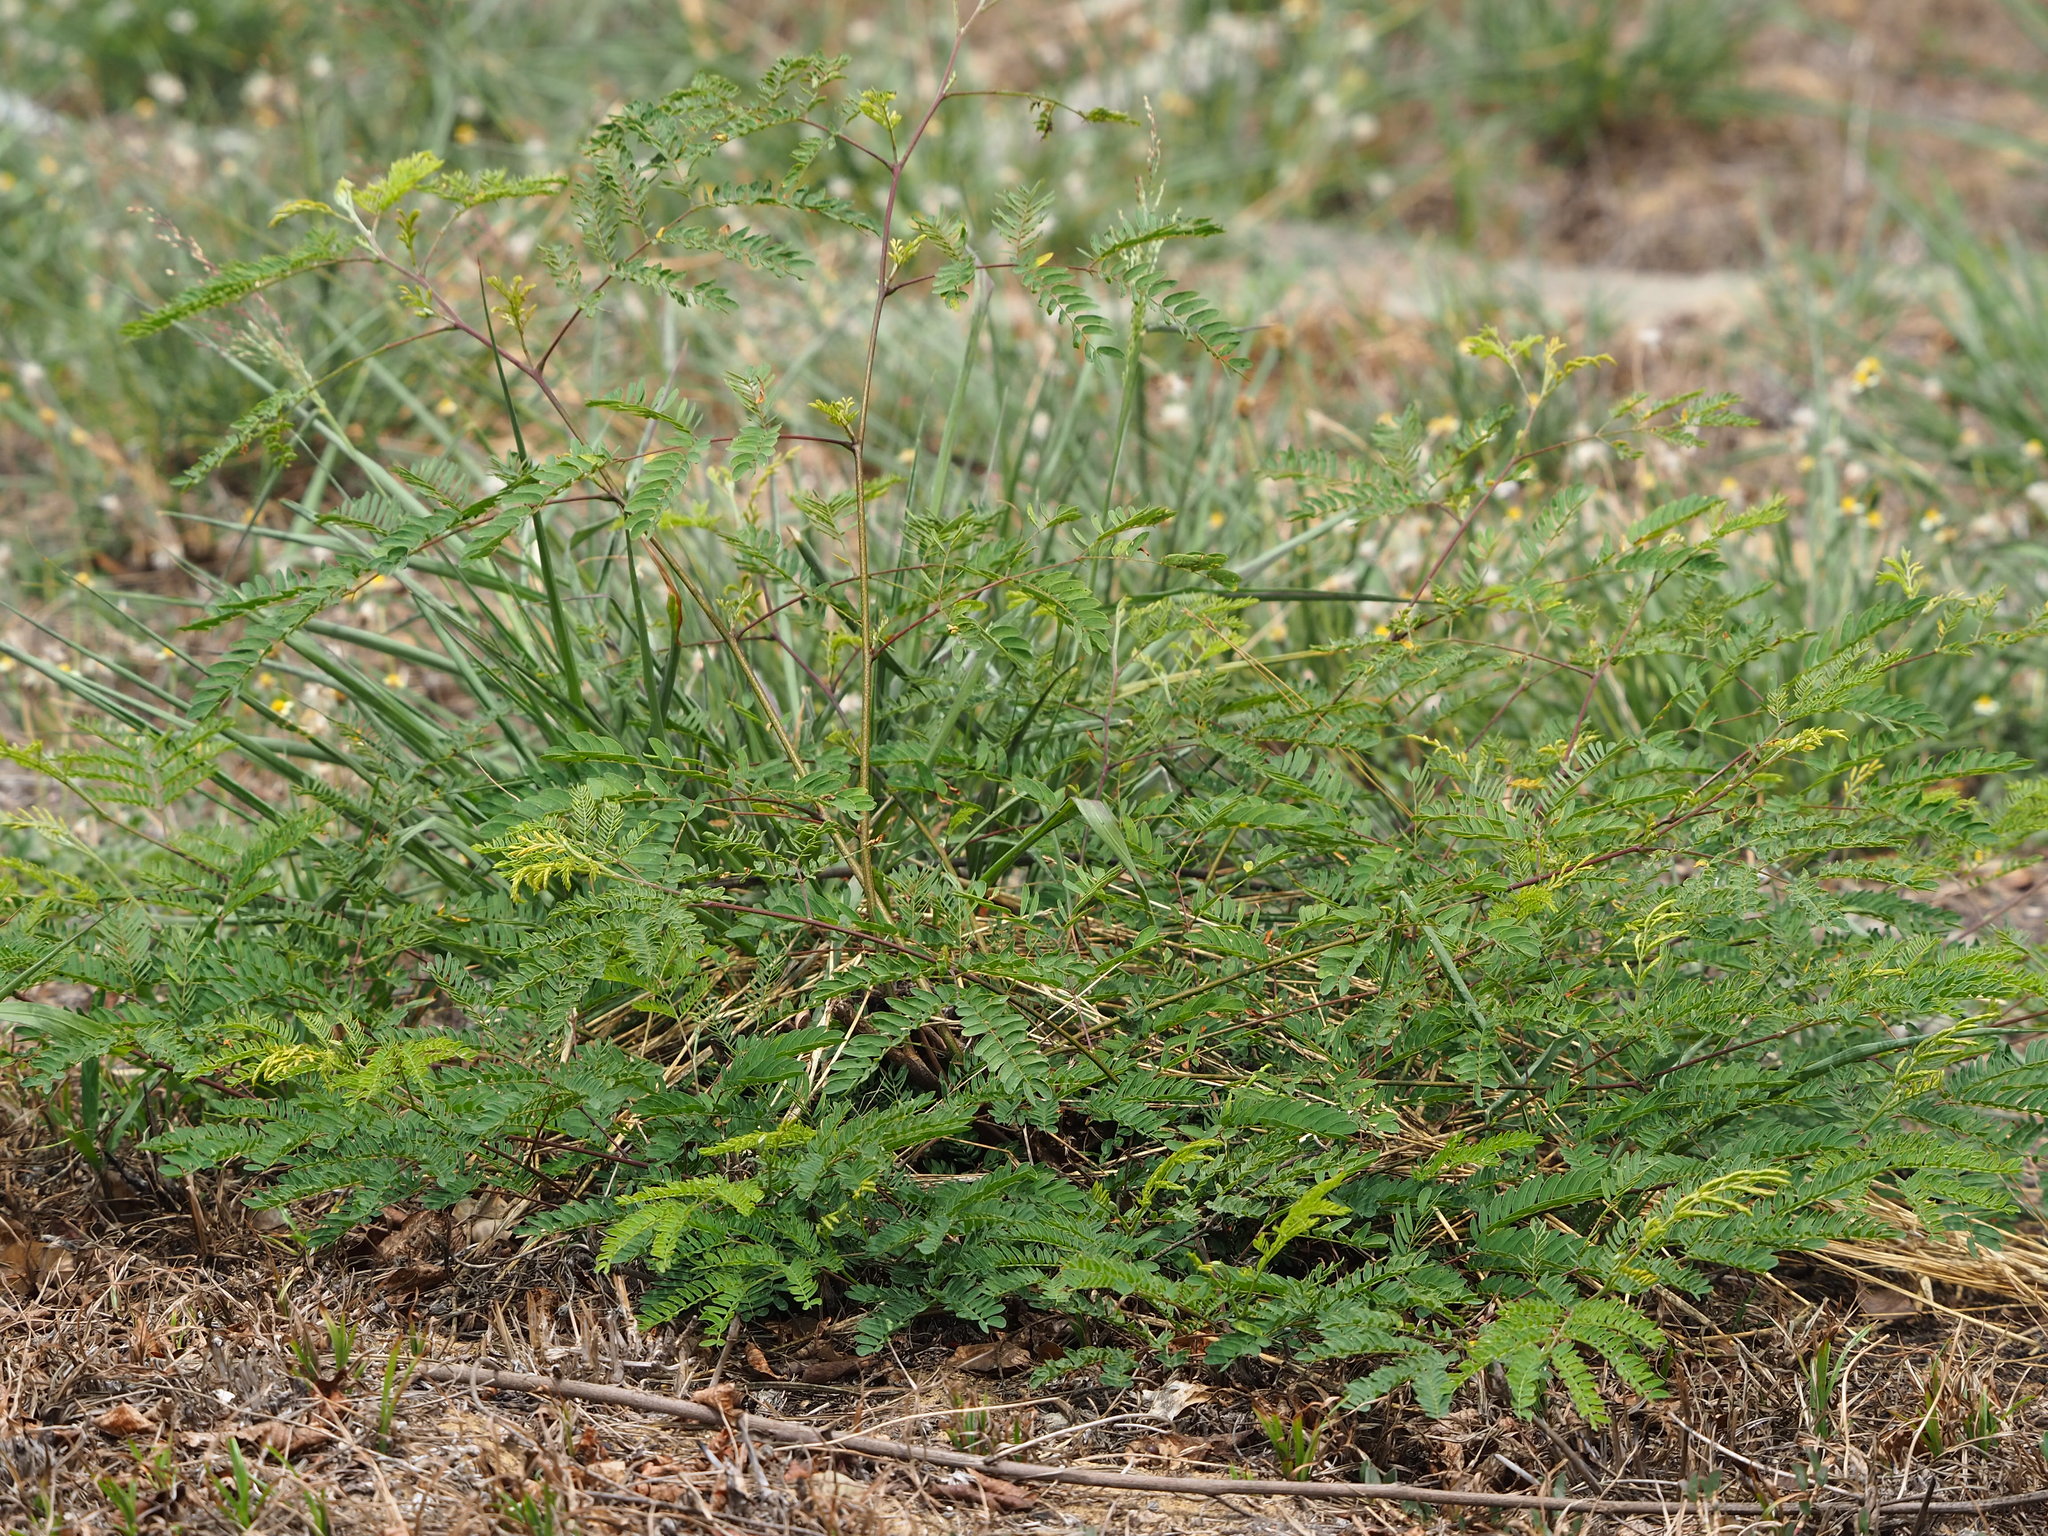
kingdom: Plantae
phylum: Tracheophyta
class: Magnoliopsida
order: Fabales
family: Fabaceae
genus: Leucaena
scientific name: Leucaena leucocephala
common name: White leadtree
